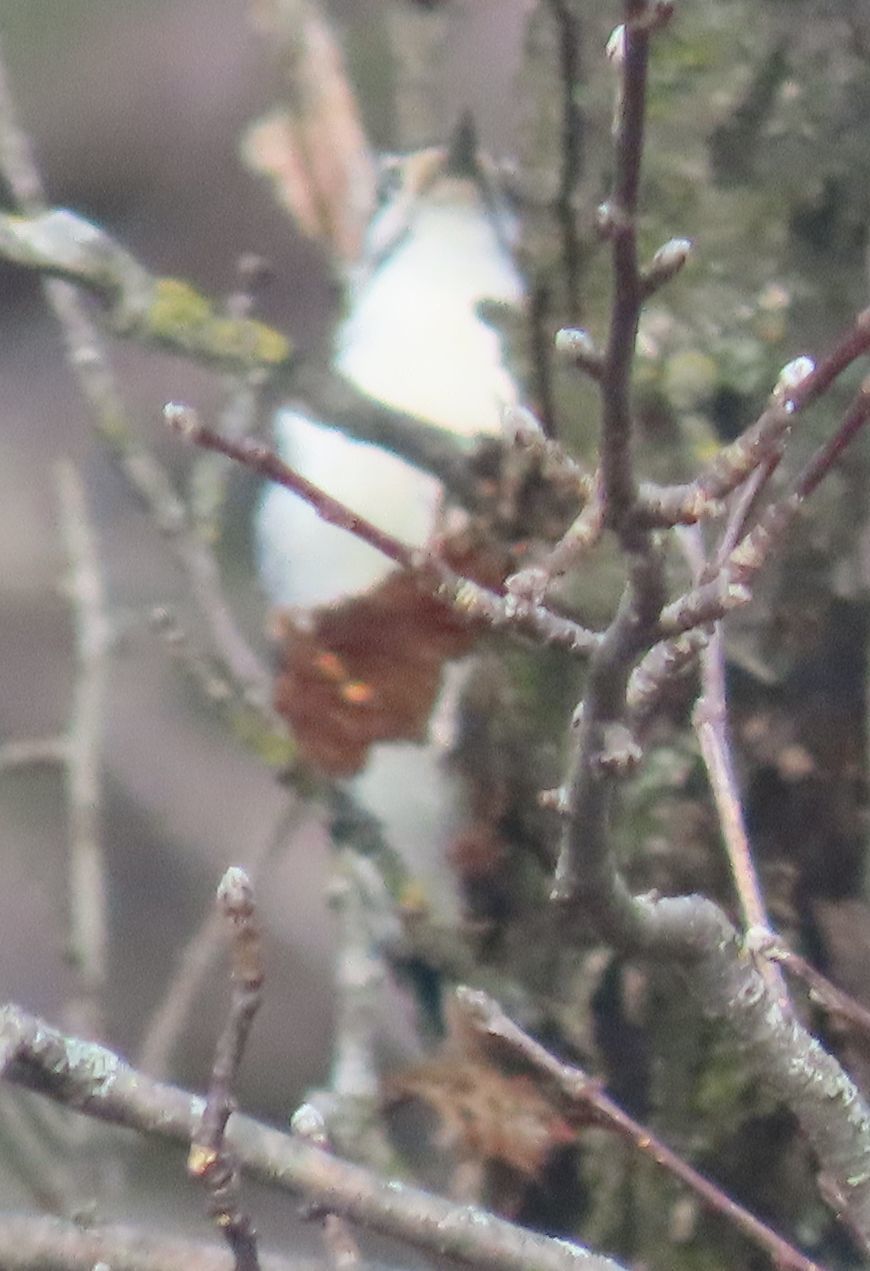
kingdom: Animalia
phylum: Chordata
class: Aves
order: Piciformes
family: Picidae
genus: Leuconotopicus
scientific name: Leuconotopicus villosus
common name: Hairy woodpecker
